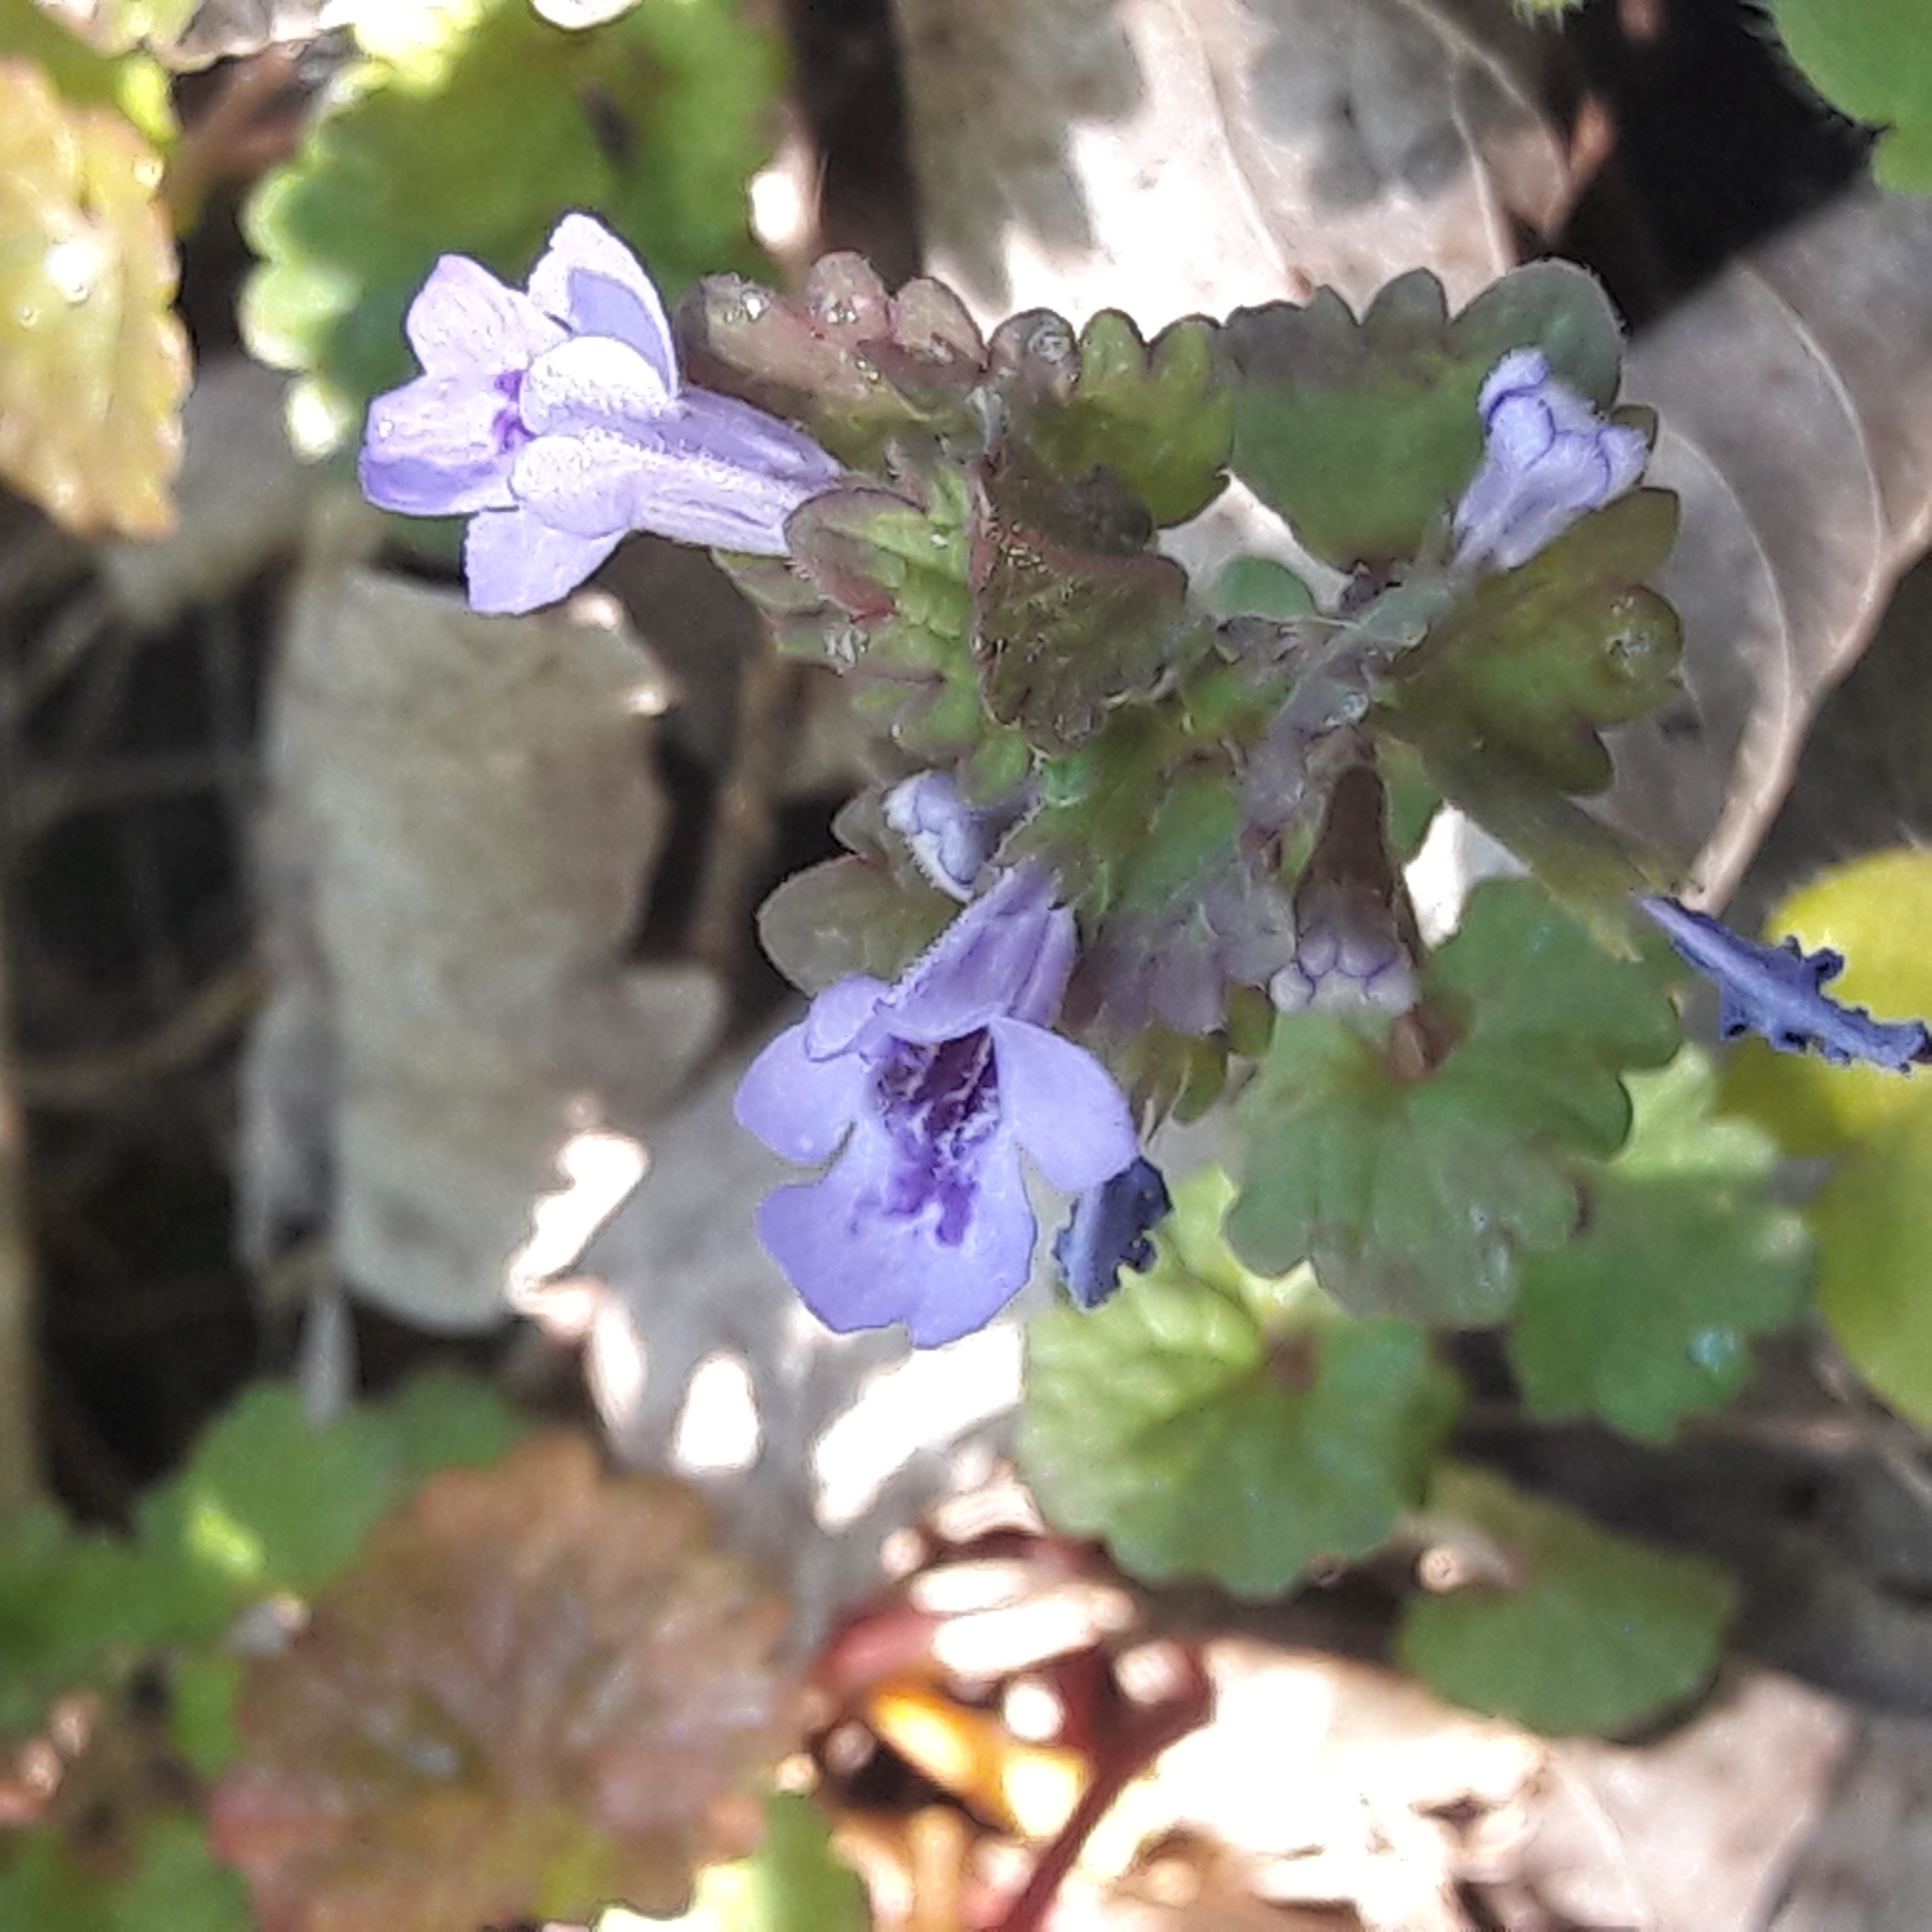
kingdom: Plantae
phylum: Tracheophyta
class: Magnoliopsida
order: Lamiales
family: Lamiaceae
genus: Glechoma
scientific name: Glechoma hederacea
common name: Ground ivy
